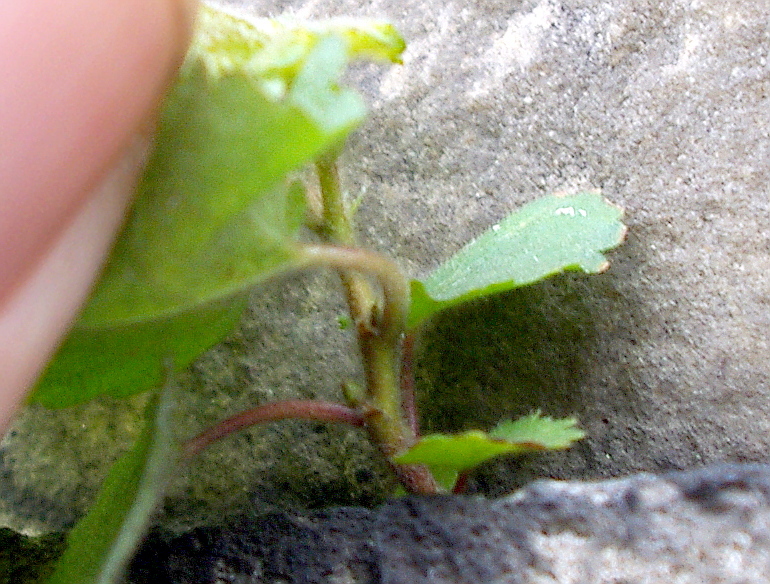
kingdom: Plantae
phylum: Tracheophyta
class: Magnoliopsida
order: Fagales
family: Betulaceae
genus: Betula
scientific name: Betula pubescens
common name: Downy birch
